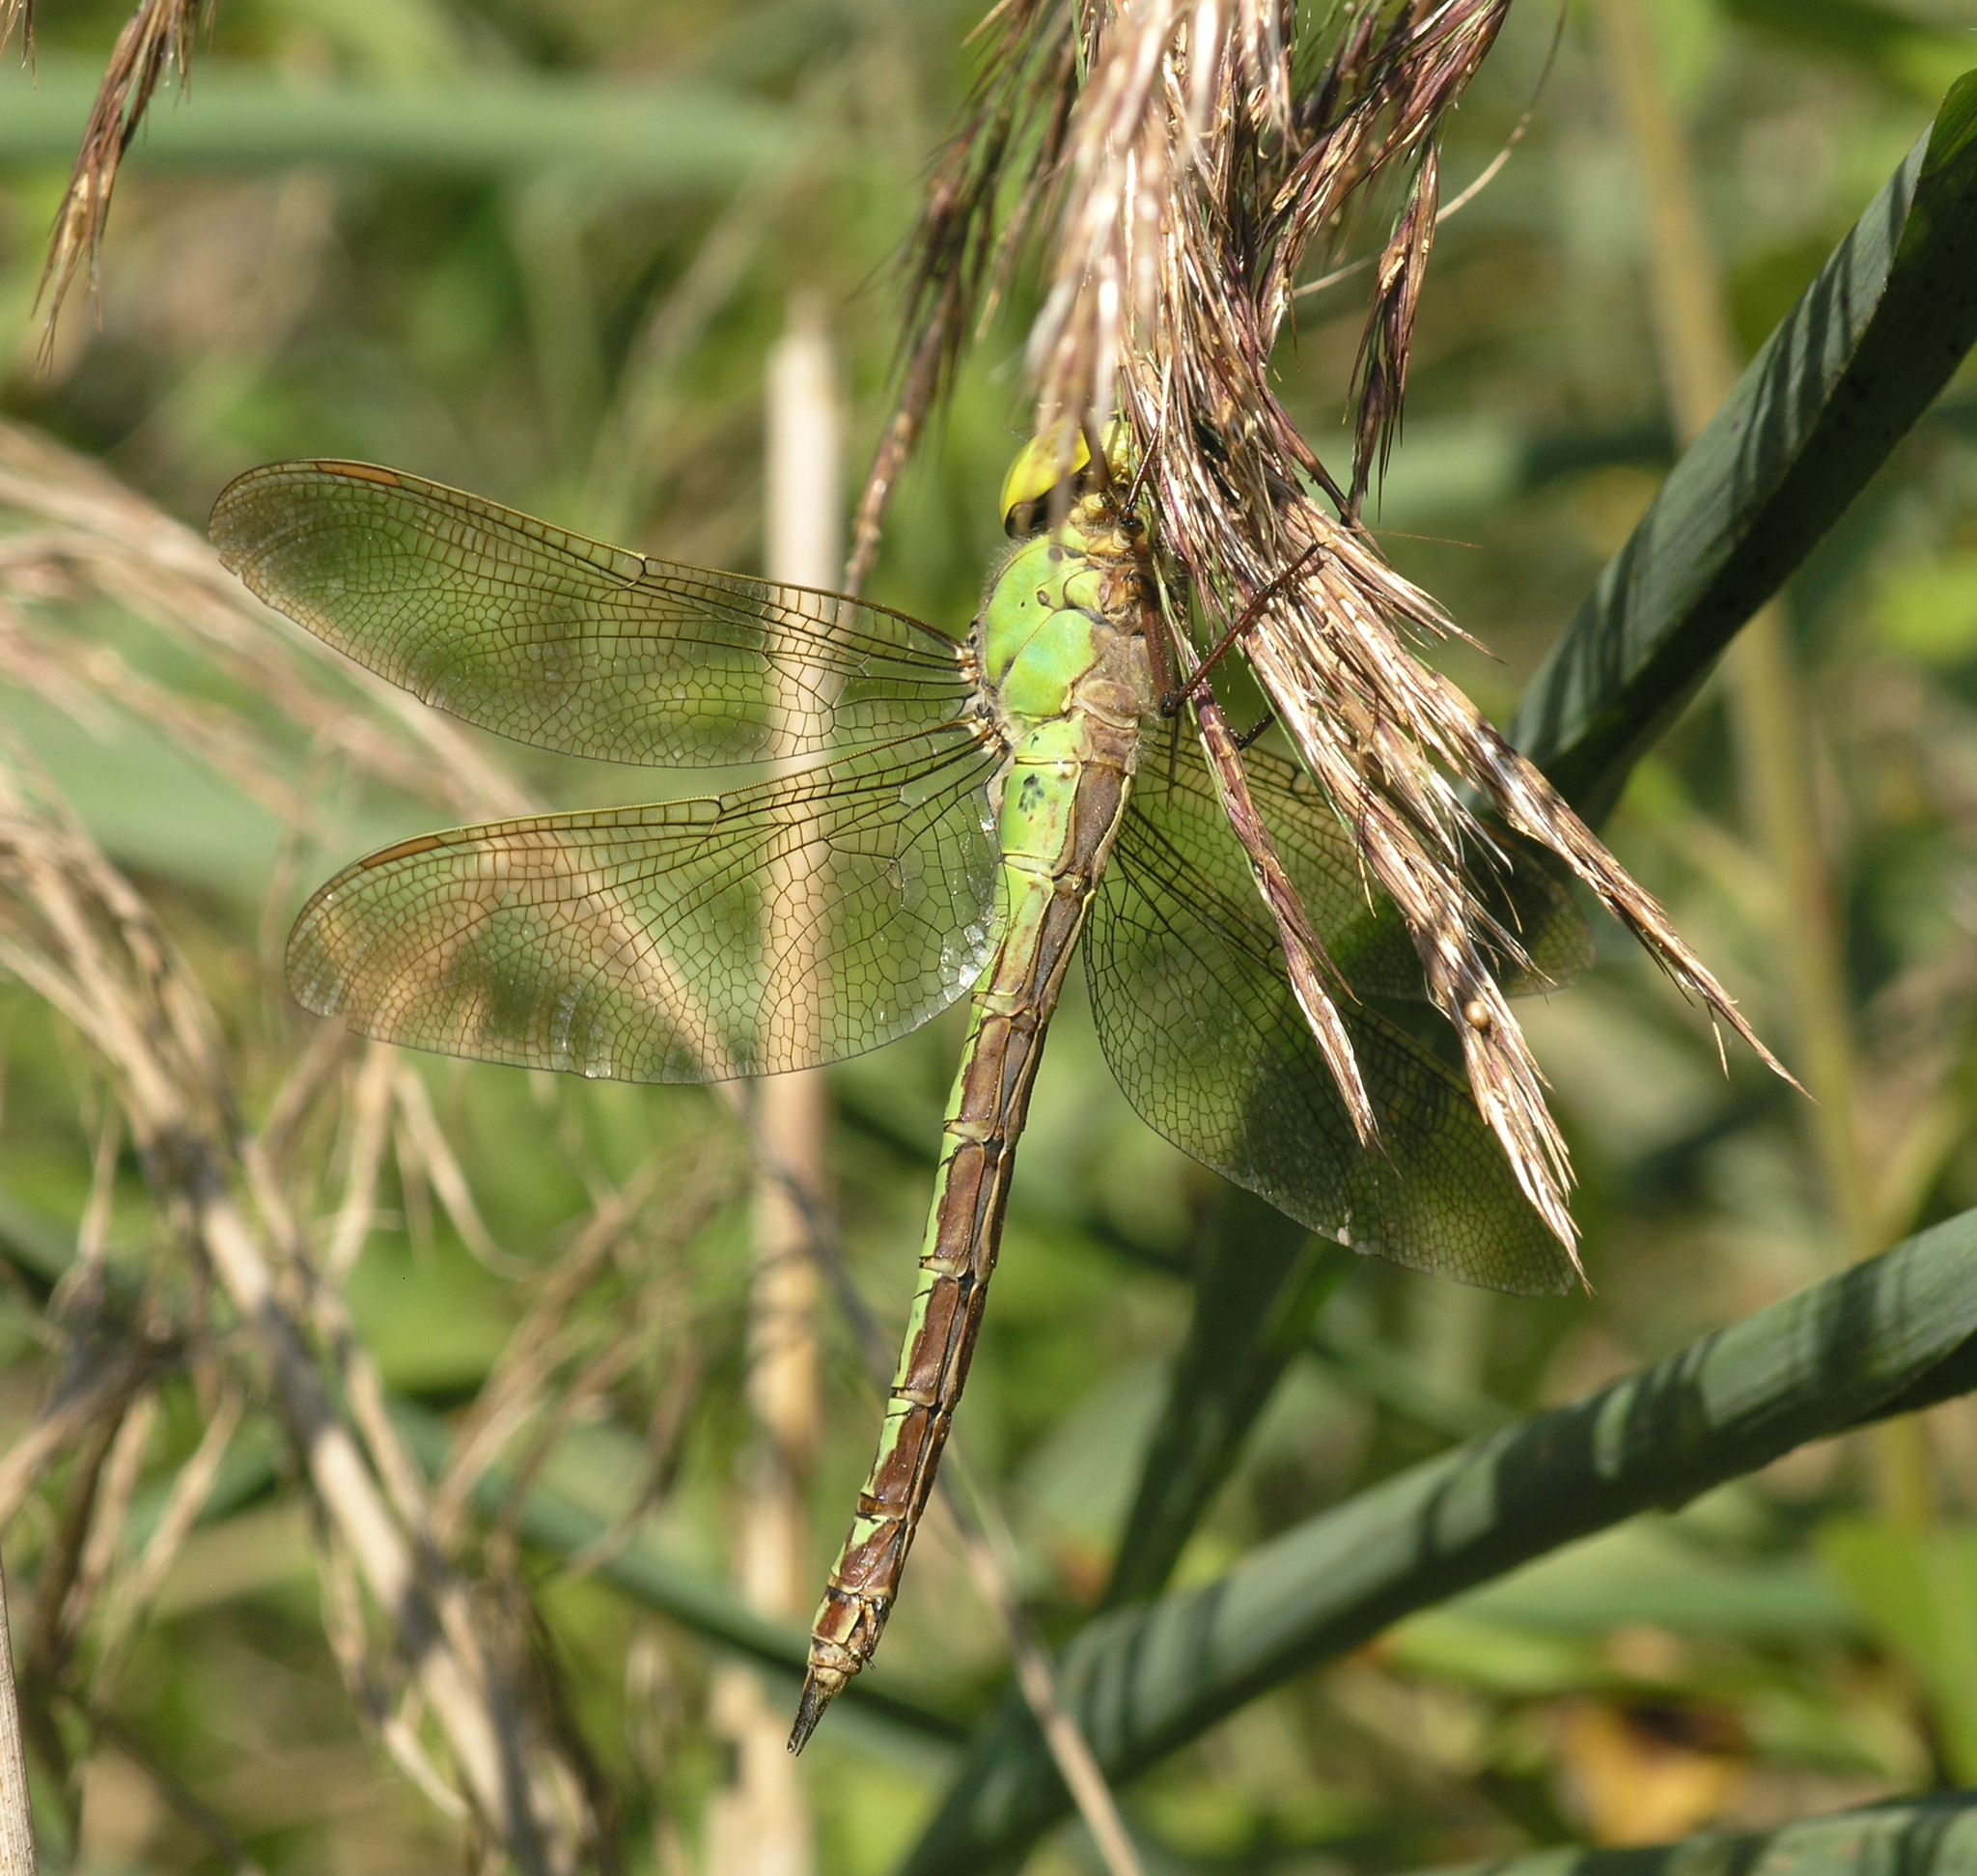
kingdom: Animalia
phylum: Arthropoda
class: Insecta
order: Odonata
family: Aeshnidae
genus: Aeshna
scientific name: Aeshna viridis
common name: Green hawker
